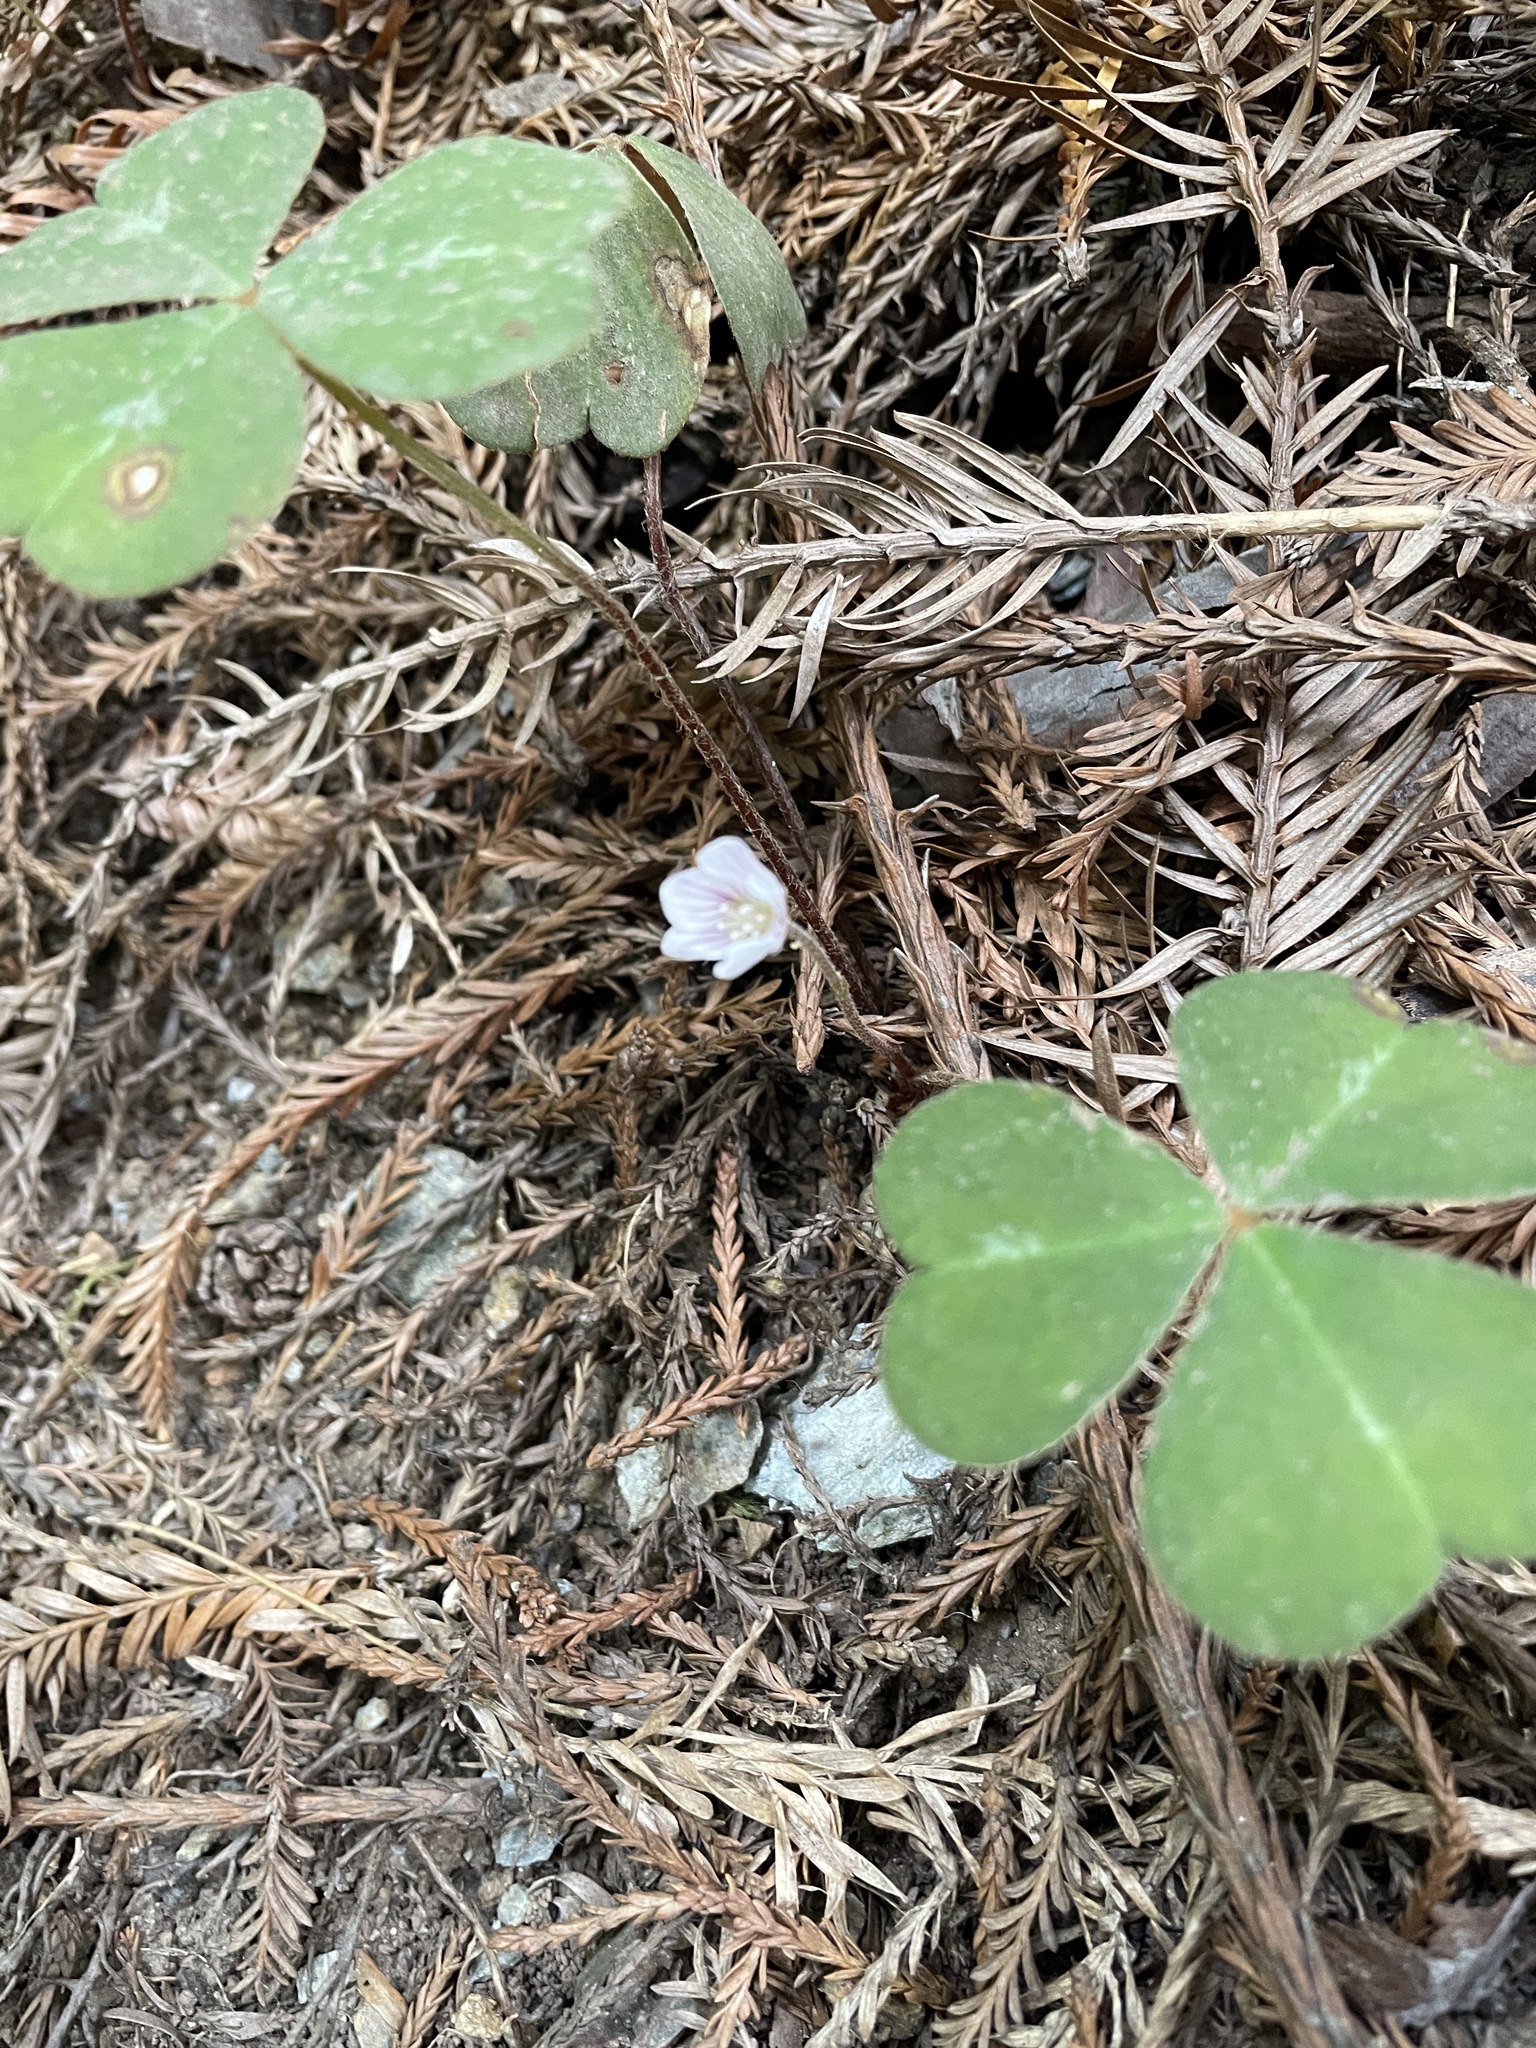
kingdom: Plantae
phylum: Tracheophyta
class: Magnoliopsida
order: Oxalidales
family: Oxalidaceae
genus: Oxalis
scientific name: Oxalis oregana
